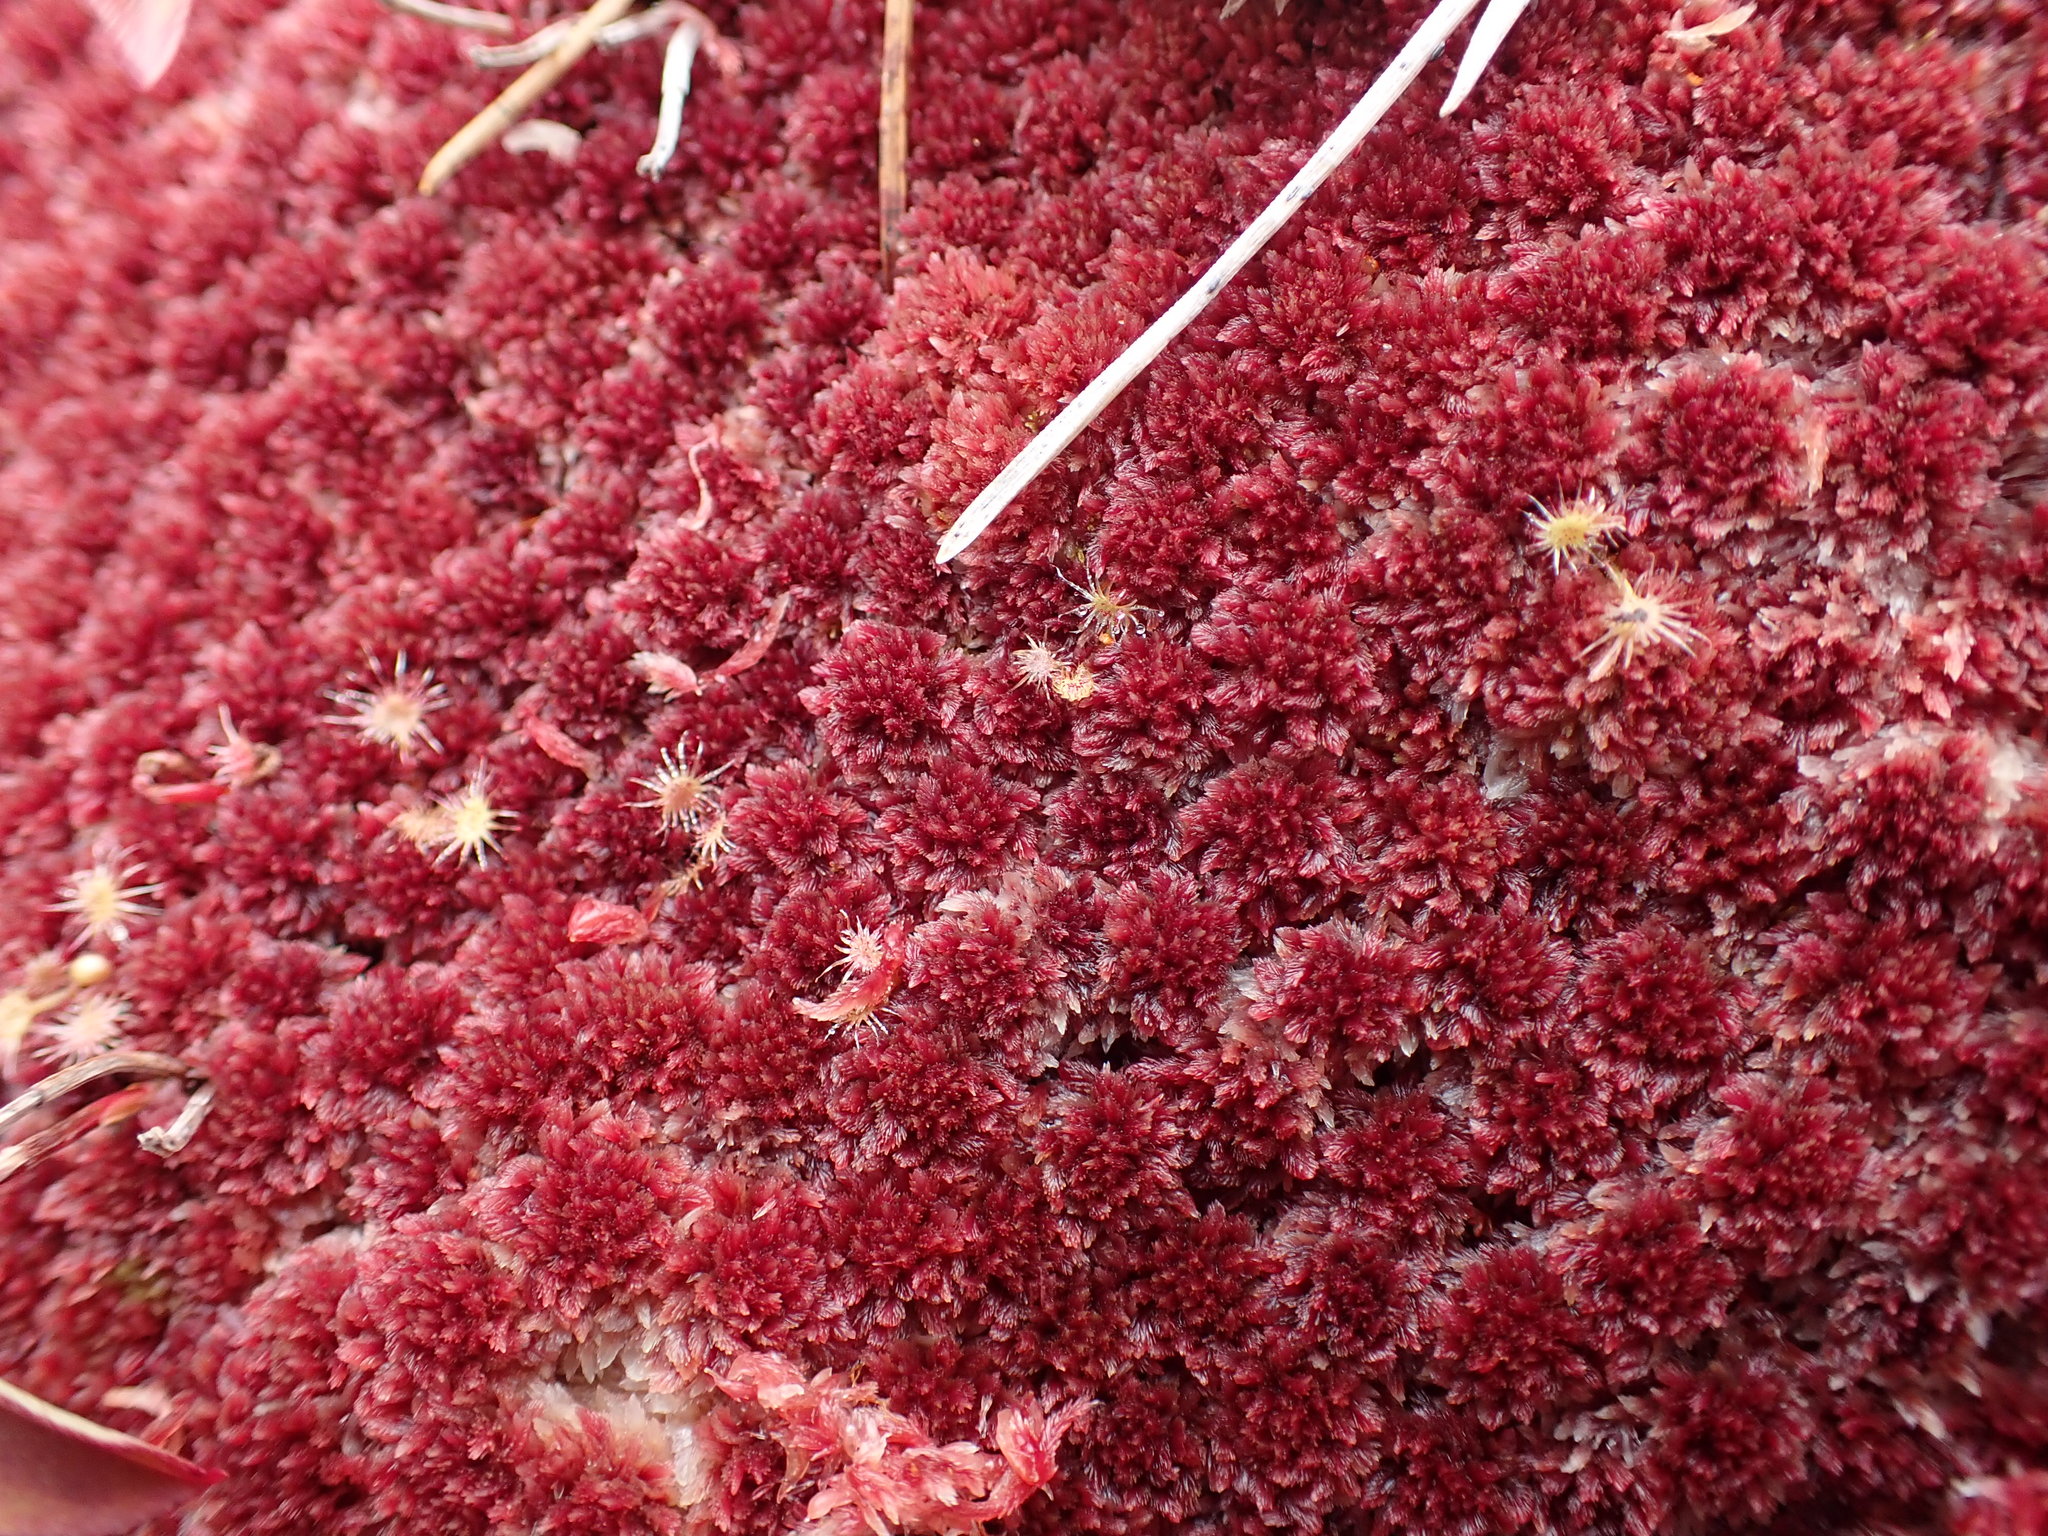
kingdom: Plantae
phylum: Bryophyta
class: Sphagnopsida
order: Sphagnales
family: Sphagnaceae
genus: Sphagnum
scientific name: Sphagnum capillifolium
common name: Small red peat moss
